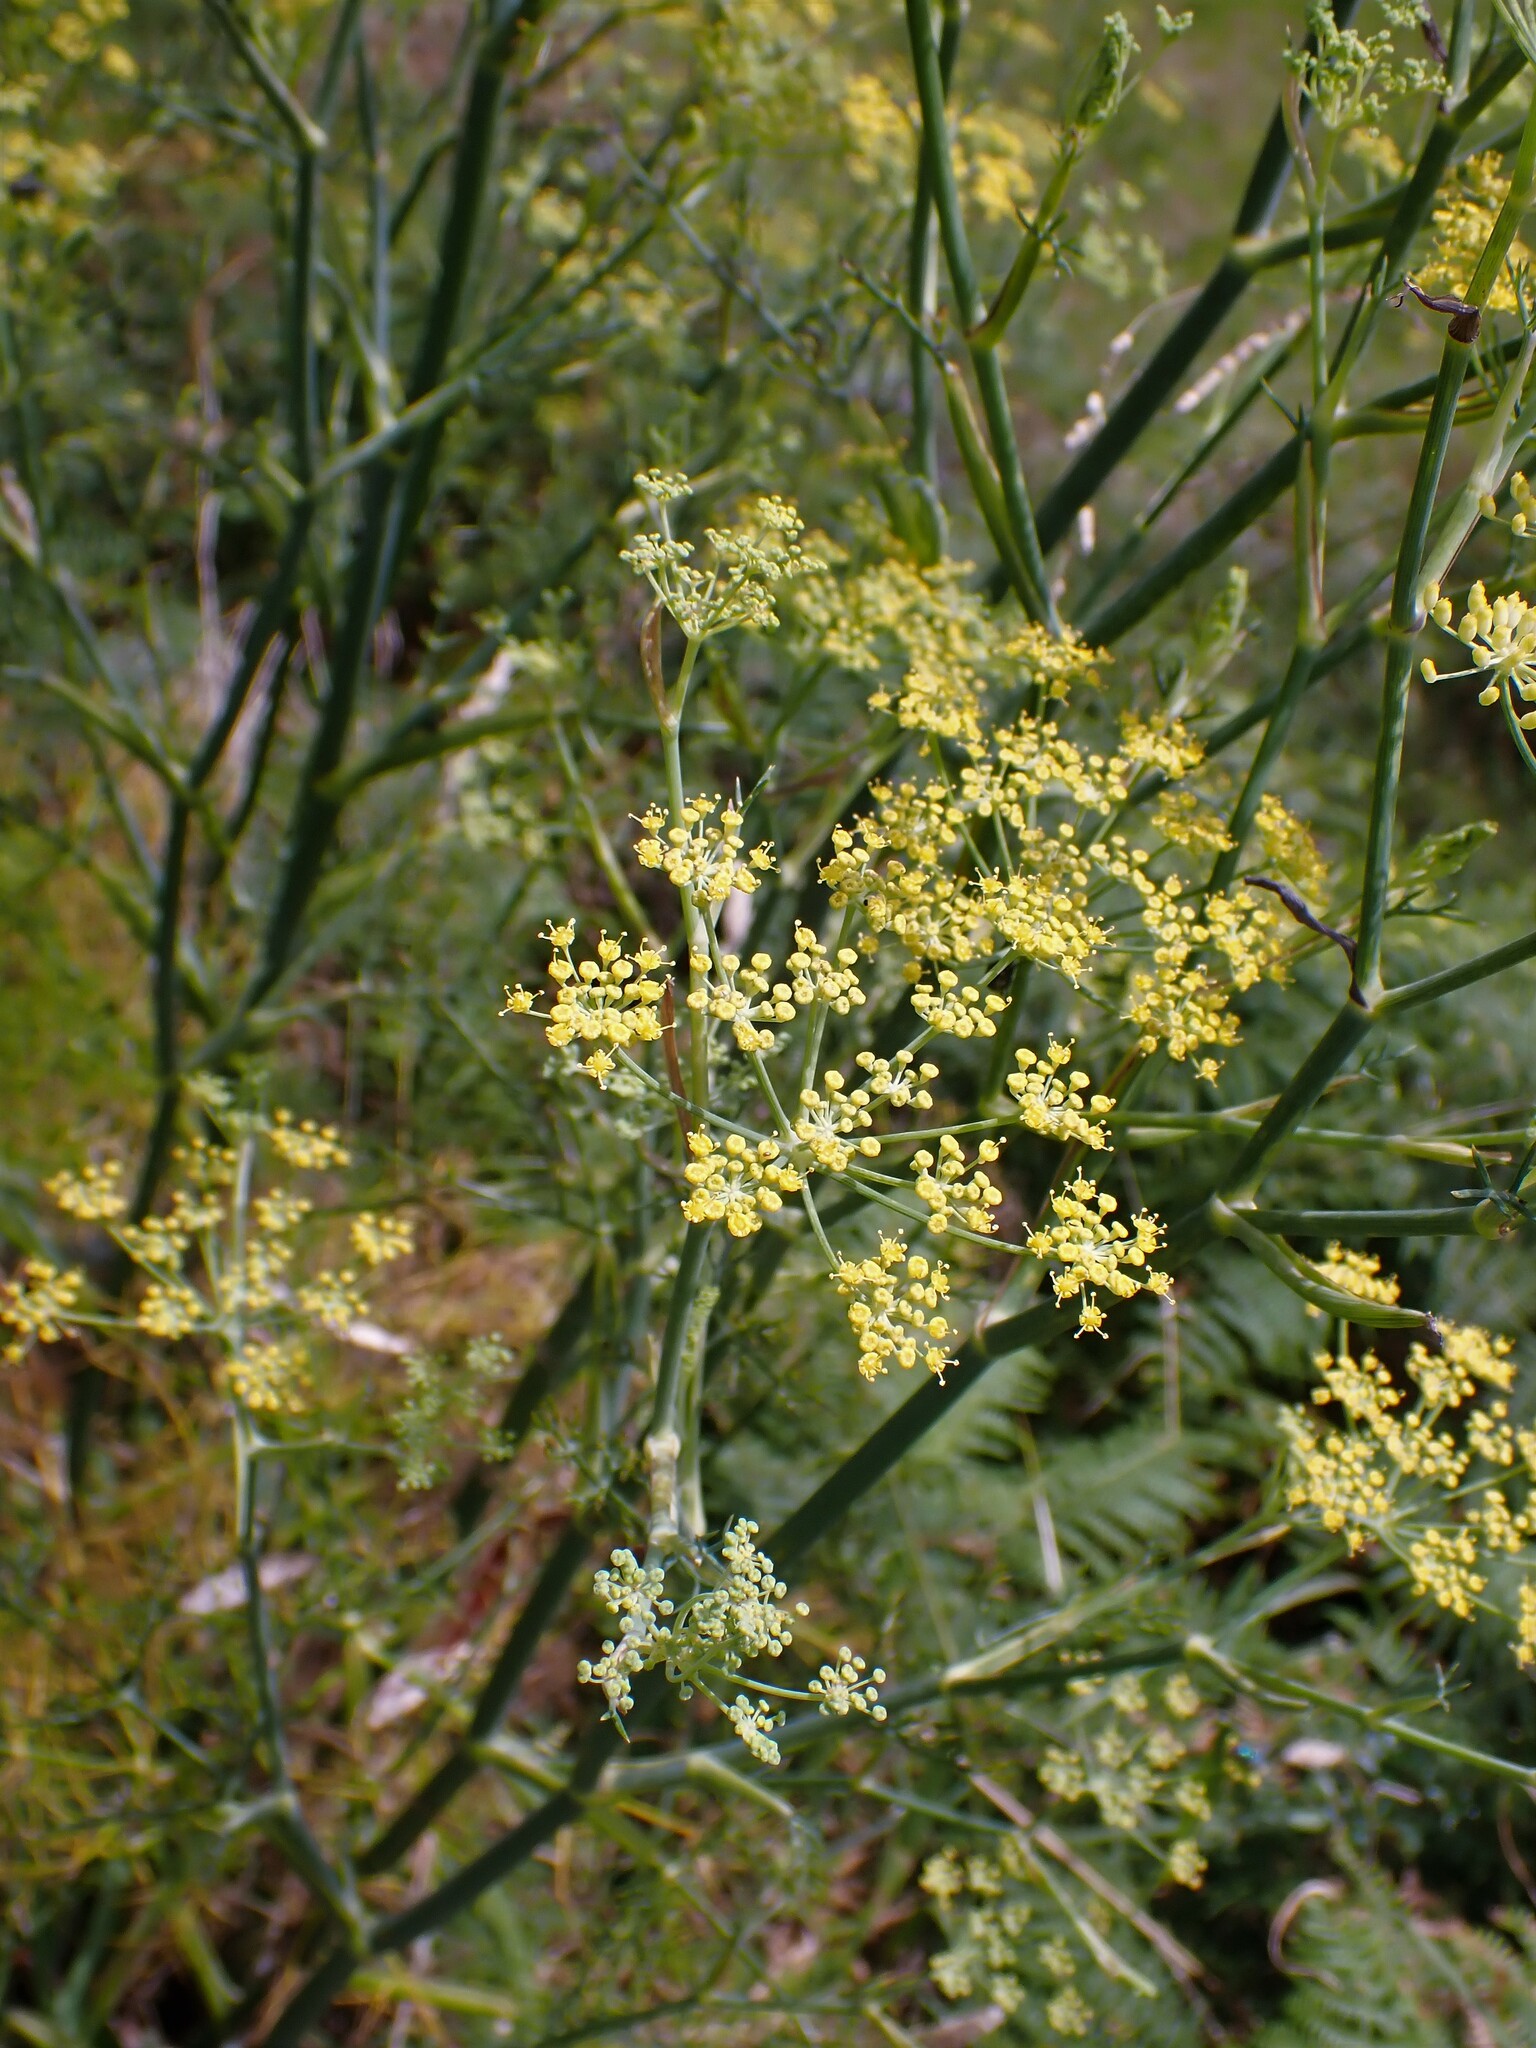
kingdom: Plantae
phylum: Tracheophyta
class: Magnoliopsida
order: Apiales
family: Apiaceae
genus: Foeniculum
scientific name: Foeniculum vulgare
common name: Fennel
